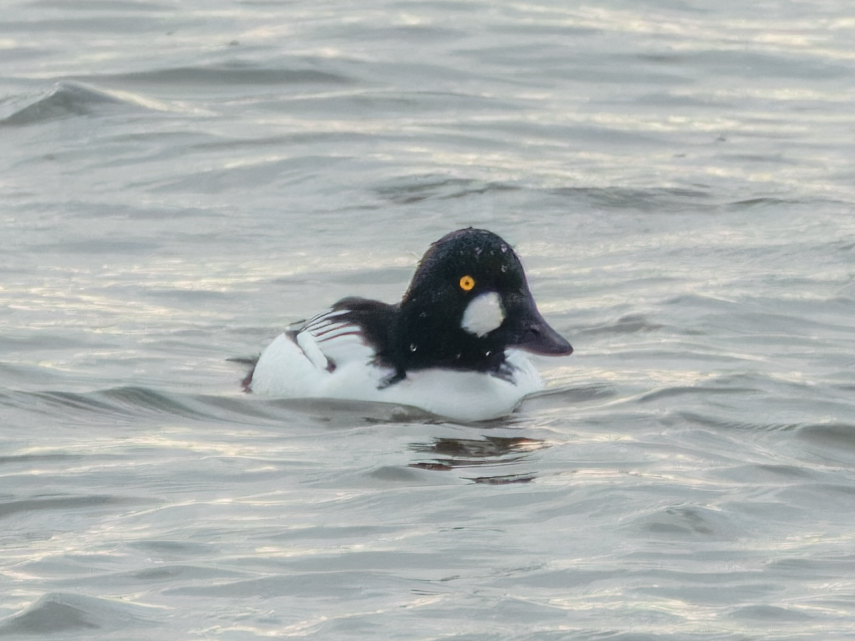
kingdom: Animalia
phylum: Chordata
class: Aves
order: Anseriformes
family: Anatidae
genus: Bucephala
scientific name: Bucephala clangula
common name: Common goldeneye
